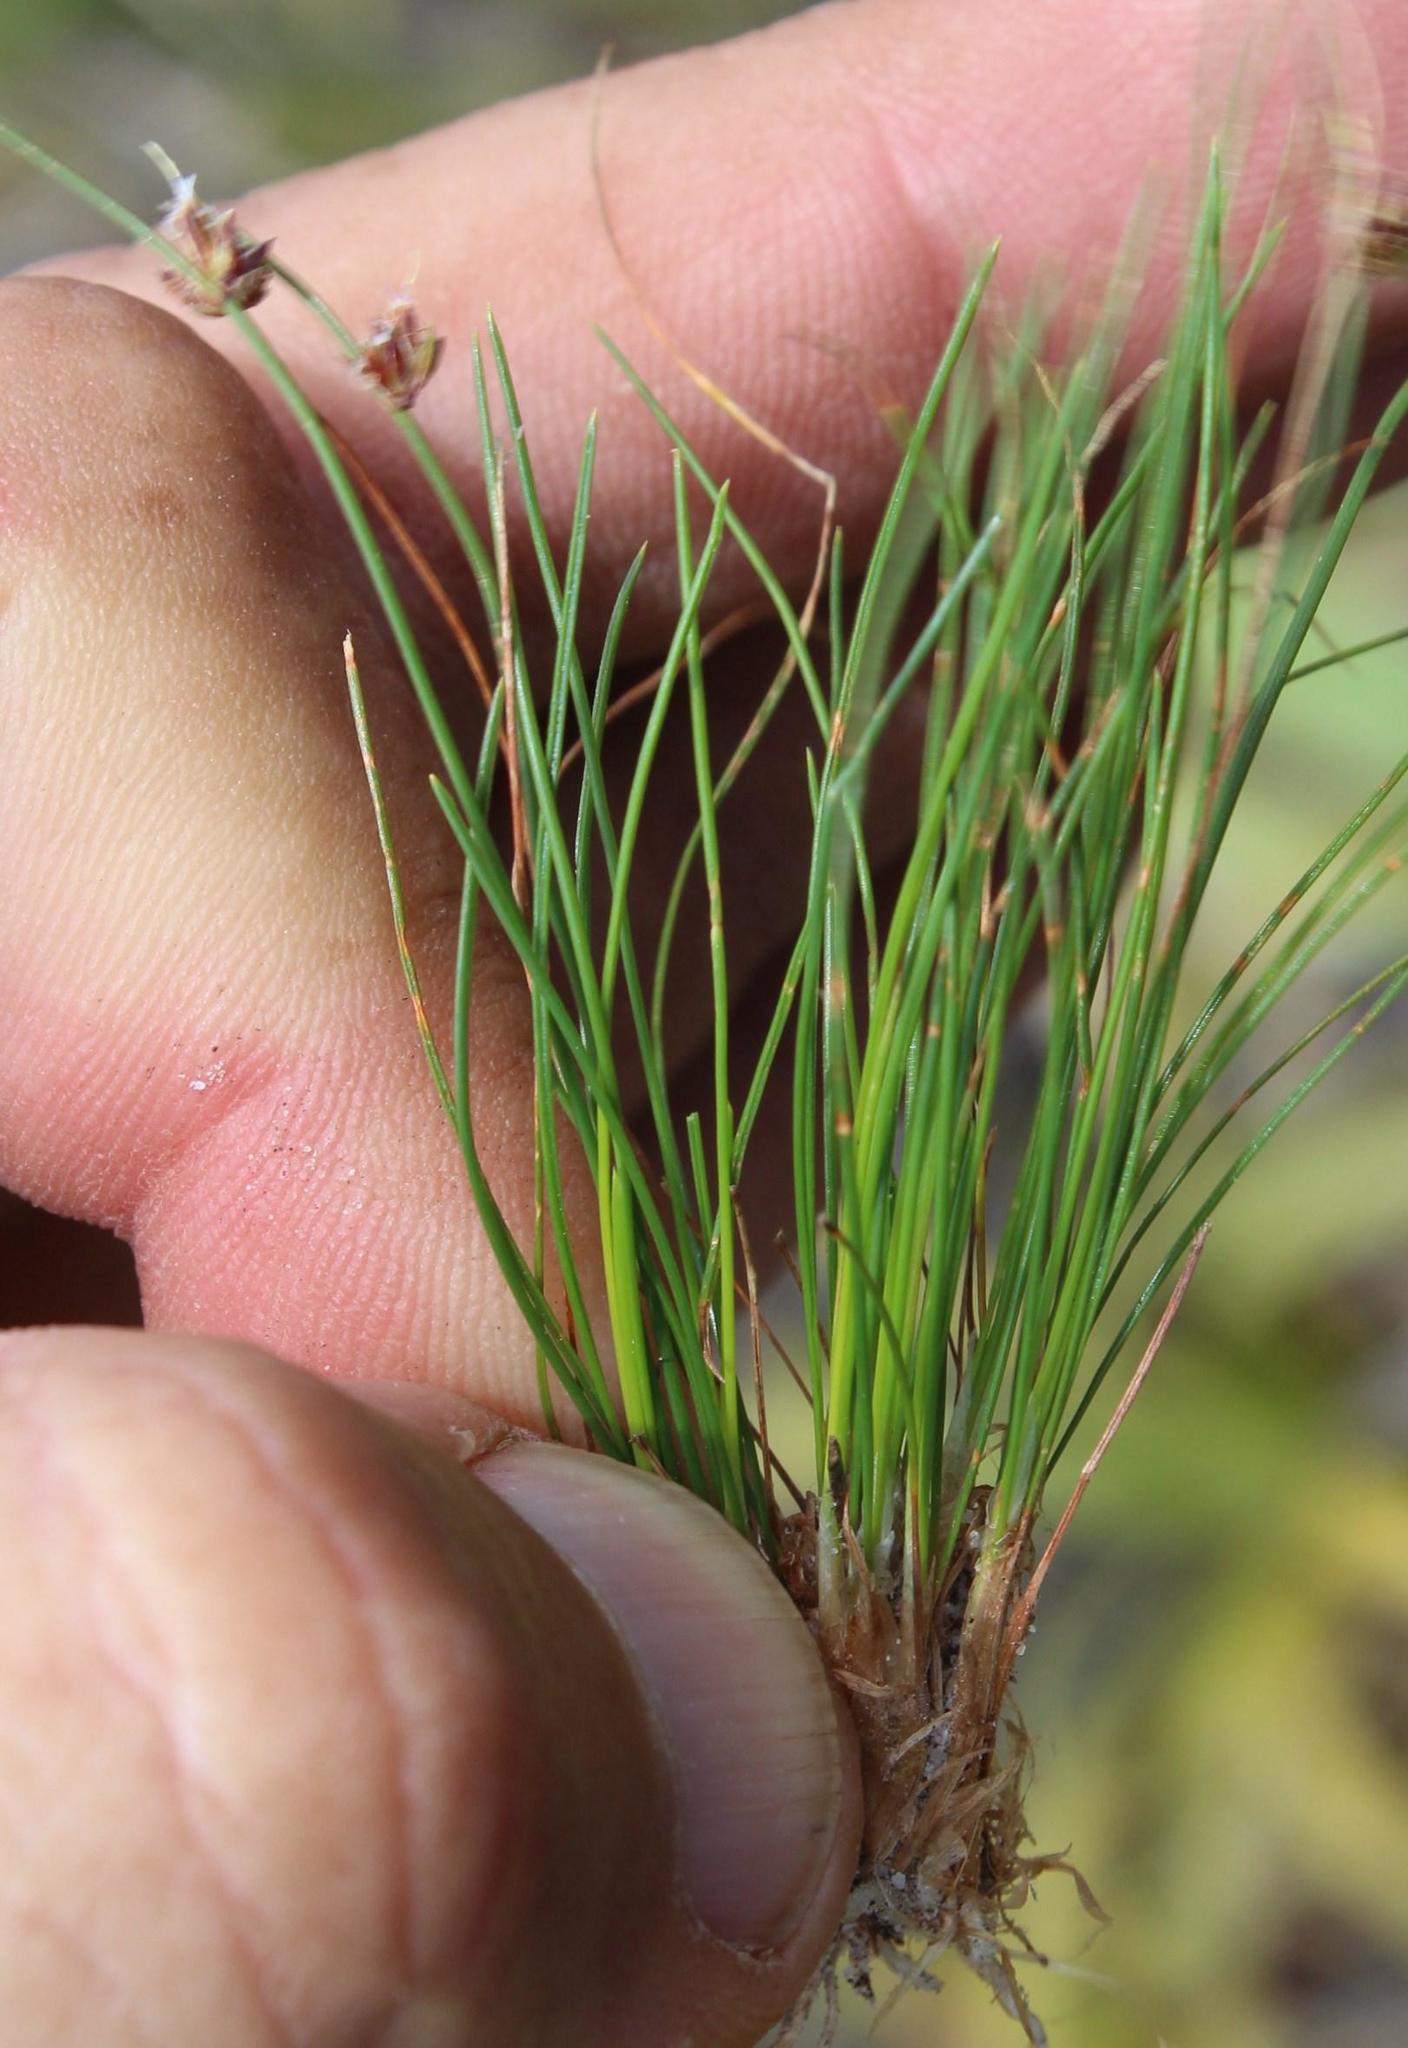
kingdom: Plantae
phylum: Tracheophyta
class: Liliopsida
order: Poales
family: Cyperaceae
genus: Ficinia
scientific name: Ficinia oligantha
